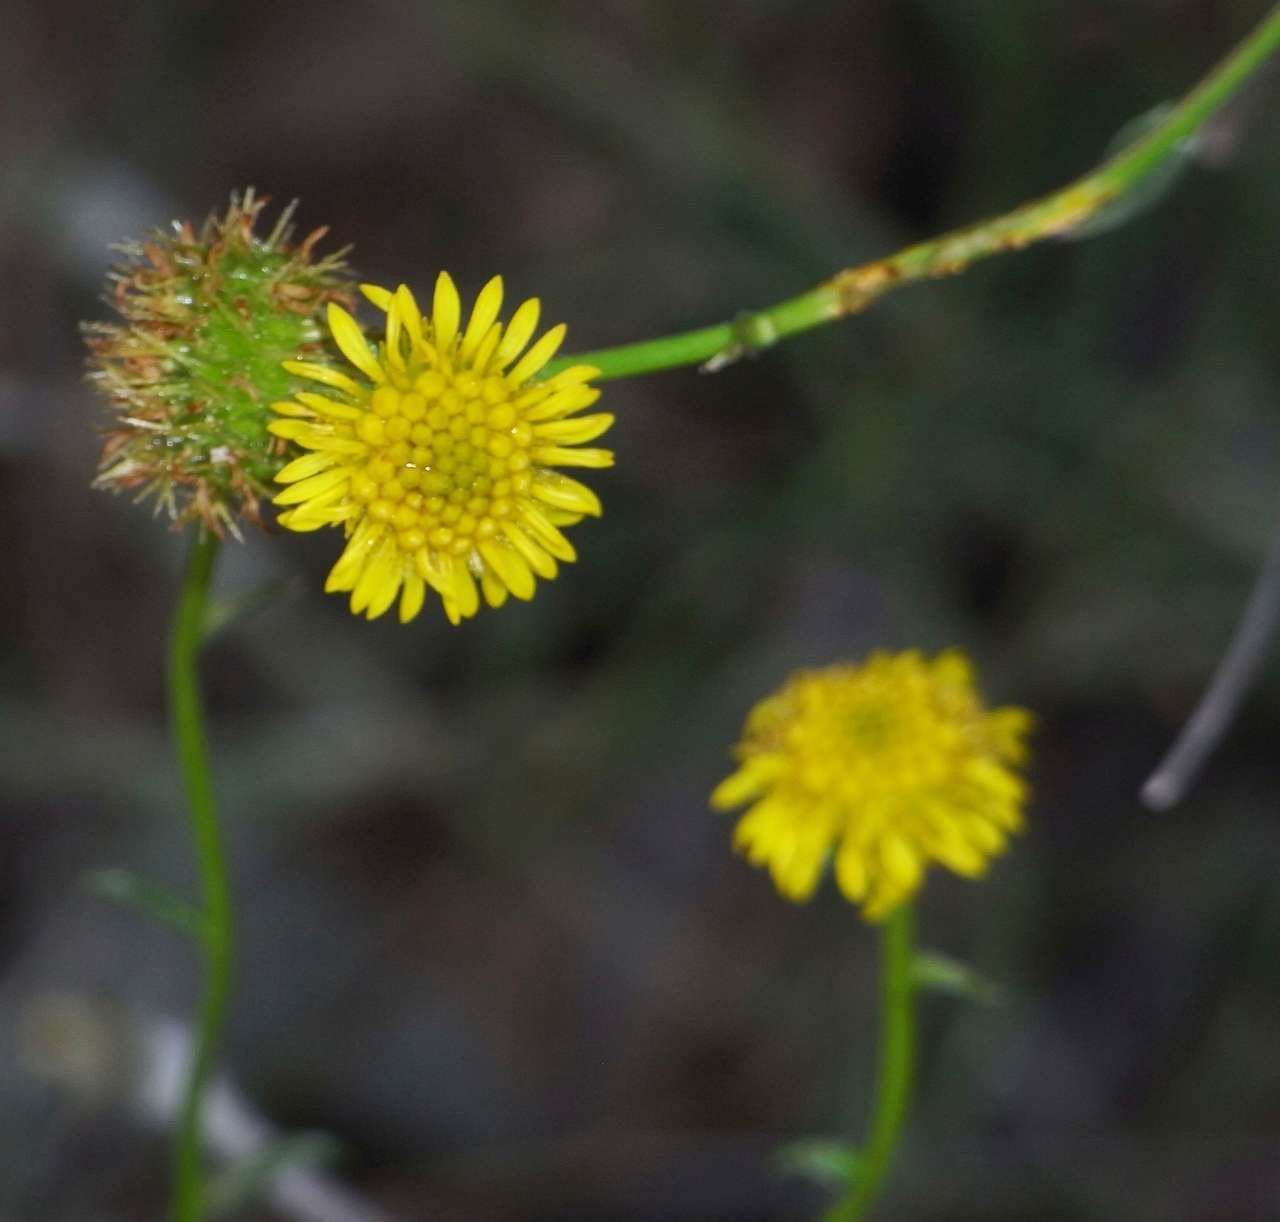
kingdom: Plantae
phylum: Tracheophyta
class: Magnoliopsida
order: Asterales
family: Asteraceae
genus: Calotis
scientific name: Calotis erinacea
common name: Tangled bur daisy
